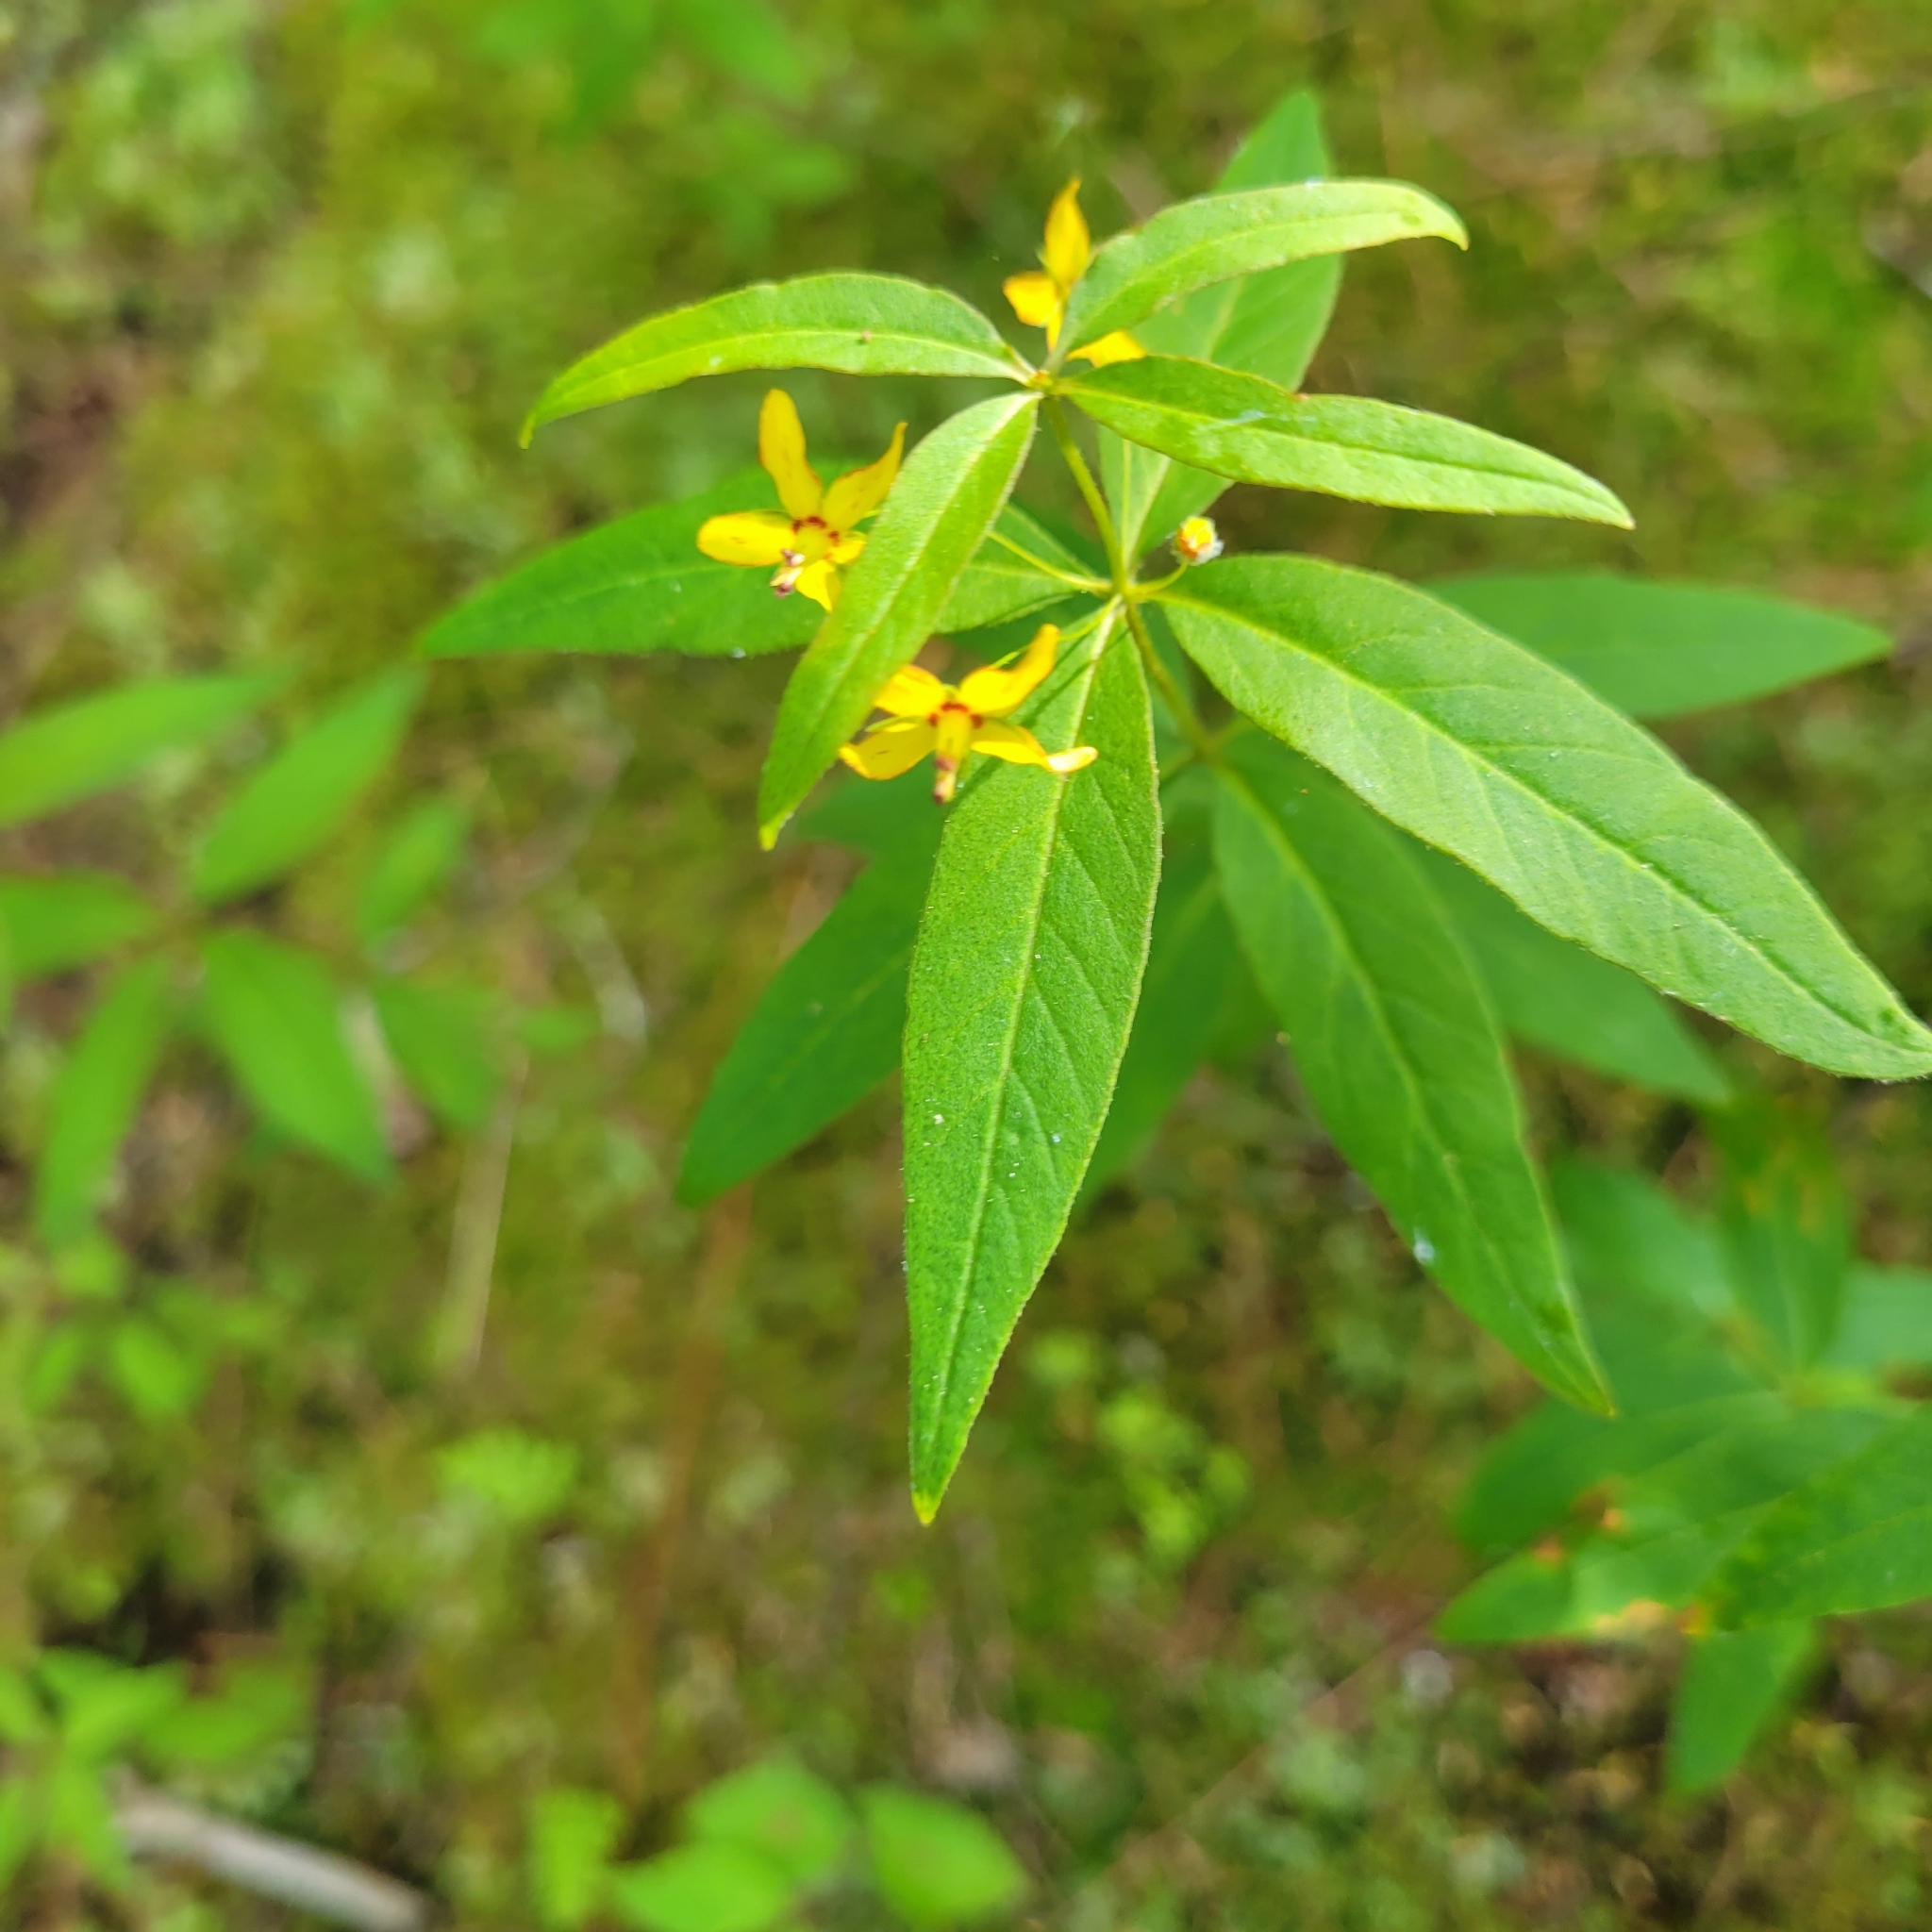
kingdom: Plantae
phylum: Tracheophyta
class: Magnoliopsida
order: Ericales
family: Primulaceae
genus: Lysimachia
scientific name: Lysimachia quadrifolia
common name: Whorled loosestrife
